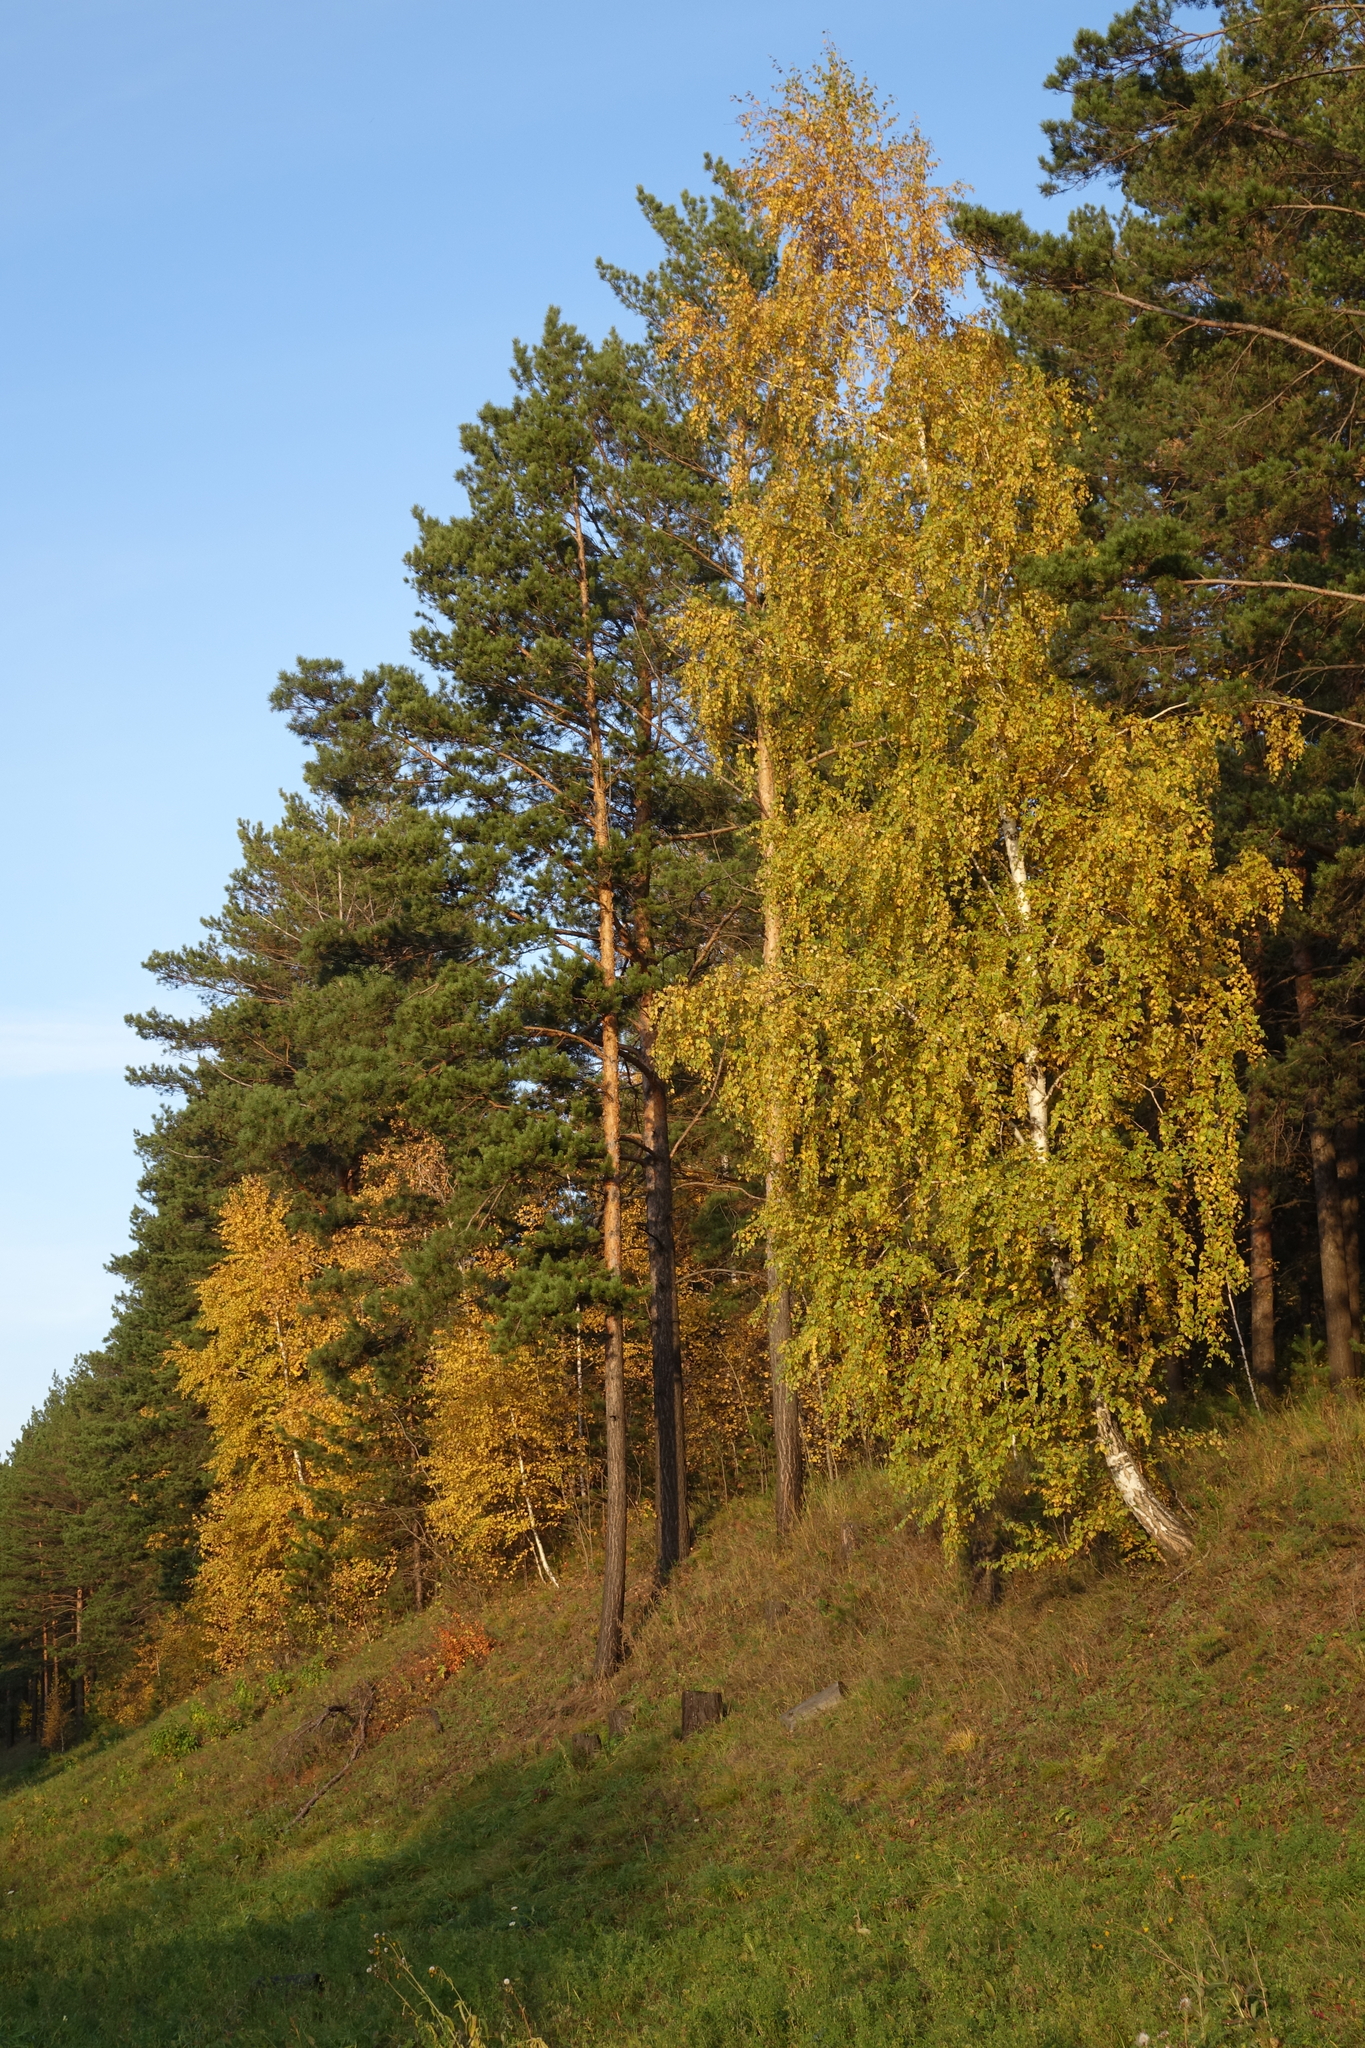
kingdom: Plantae
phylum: Tracheophyta
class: Pinopsida
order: Pinales
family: Pinaceae
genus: Pinus
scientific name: Pinus sylvestris
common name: Scots pine
